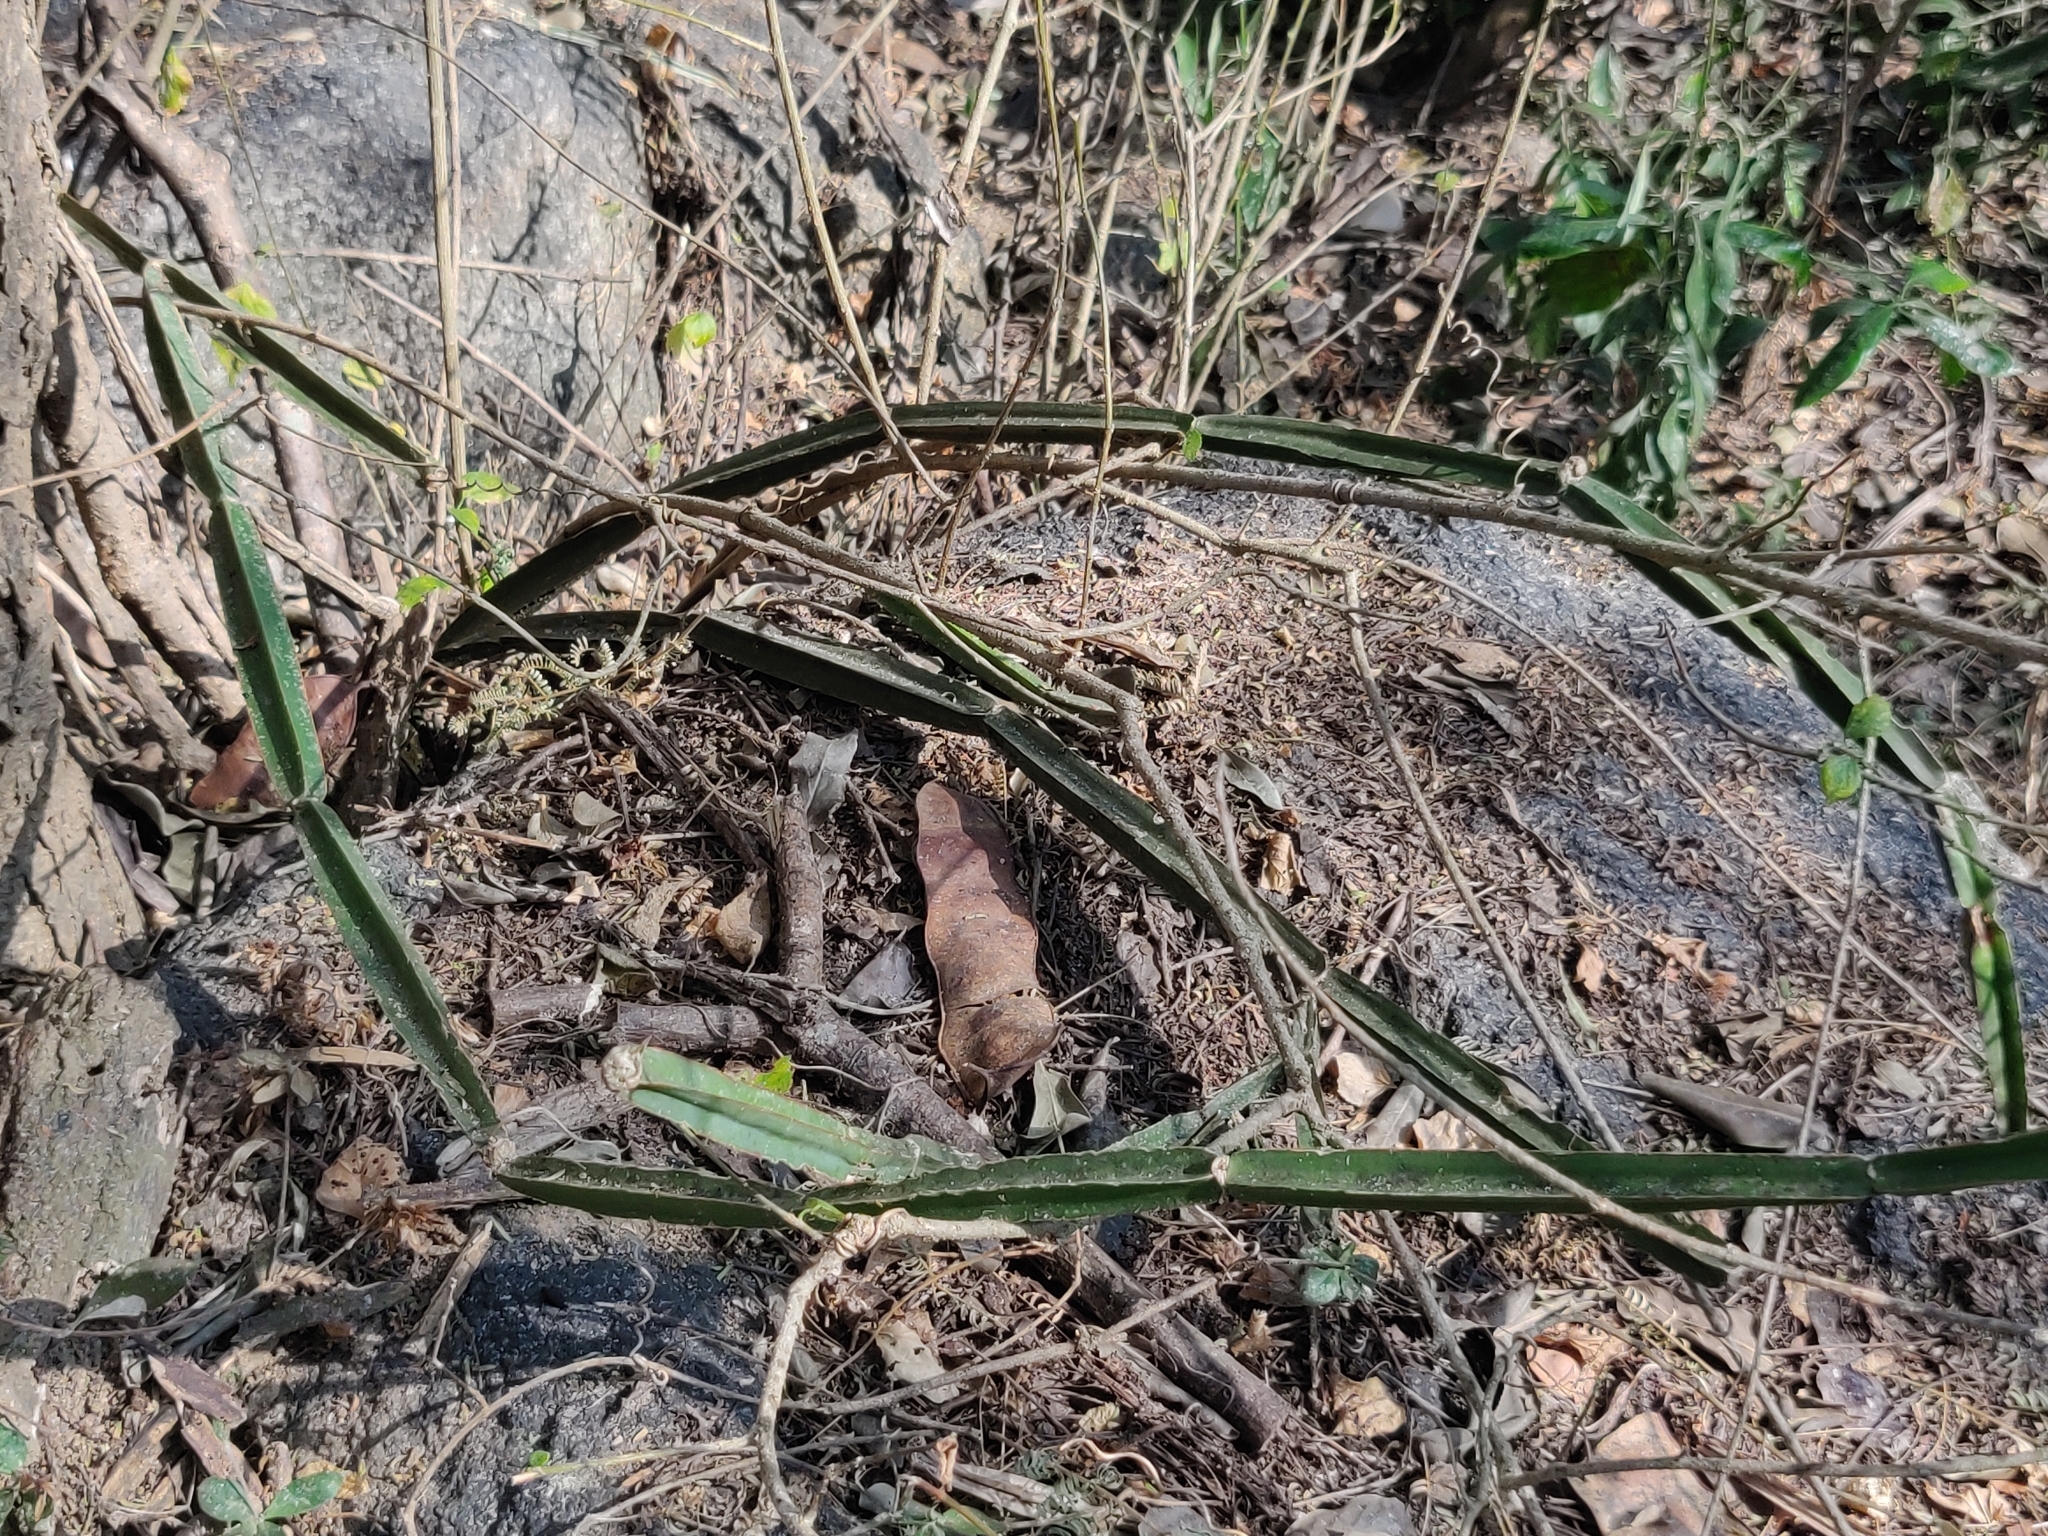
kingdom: Plantae
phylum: Tracheophyta
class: Magnoliopsida
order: Vitales
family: Vitaceae
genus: Cissus
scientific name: Cissus quadrangularis
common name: Veldt-grape
